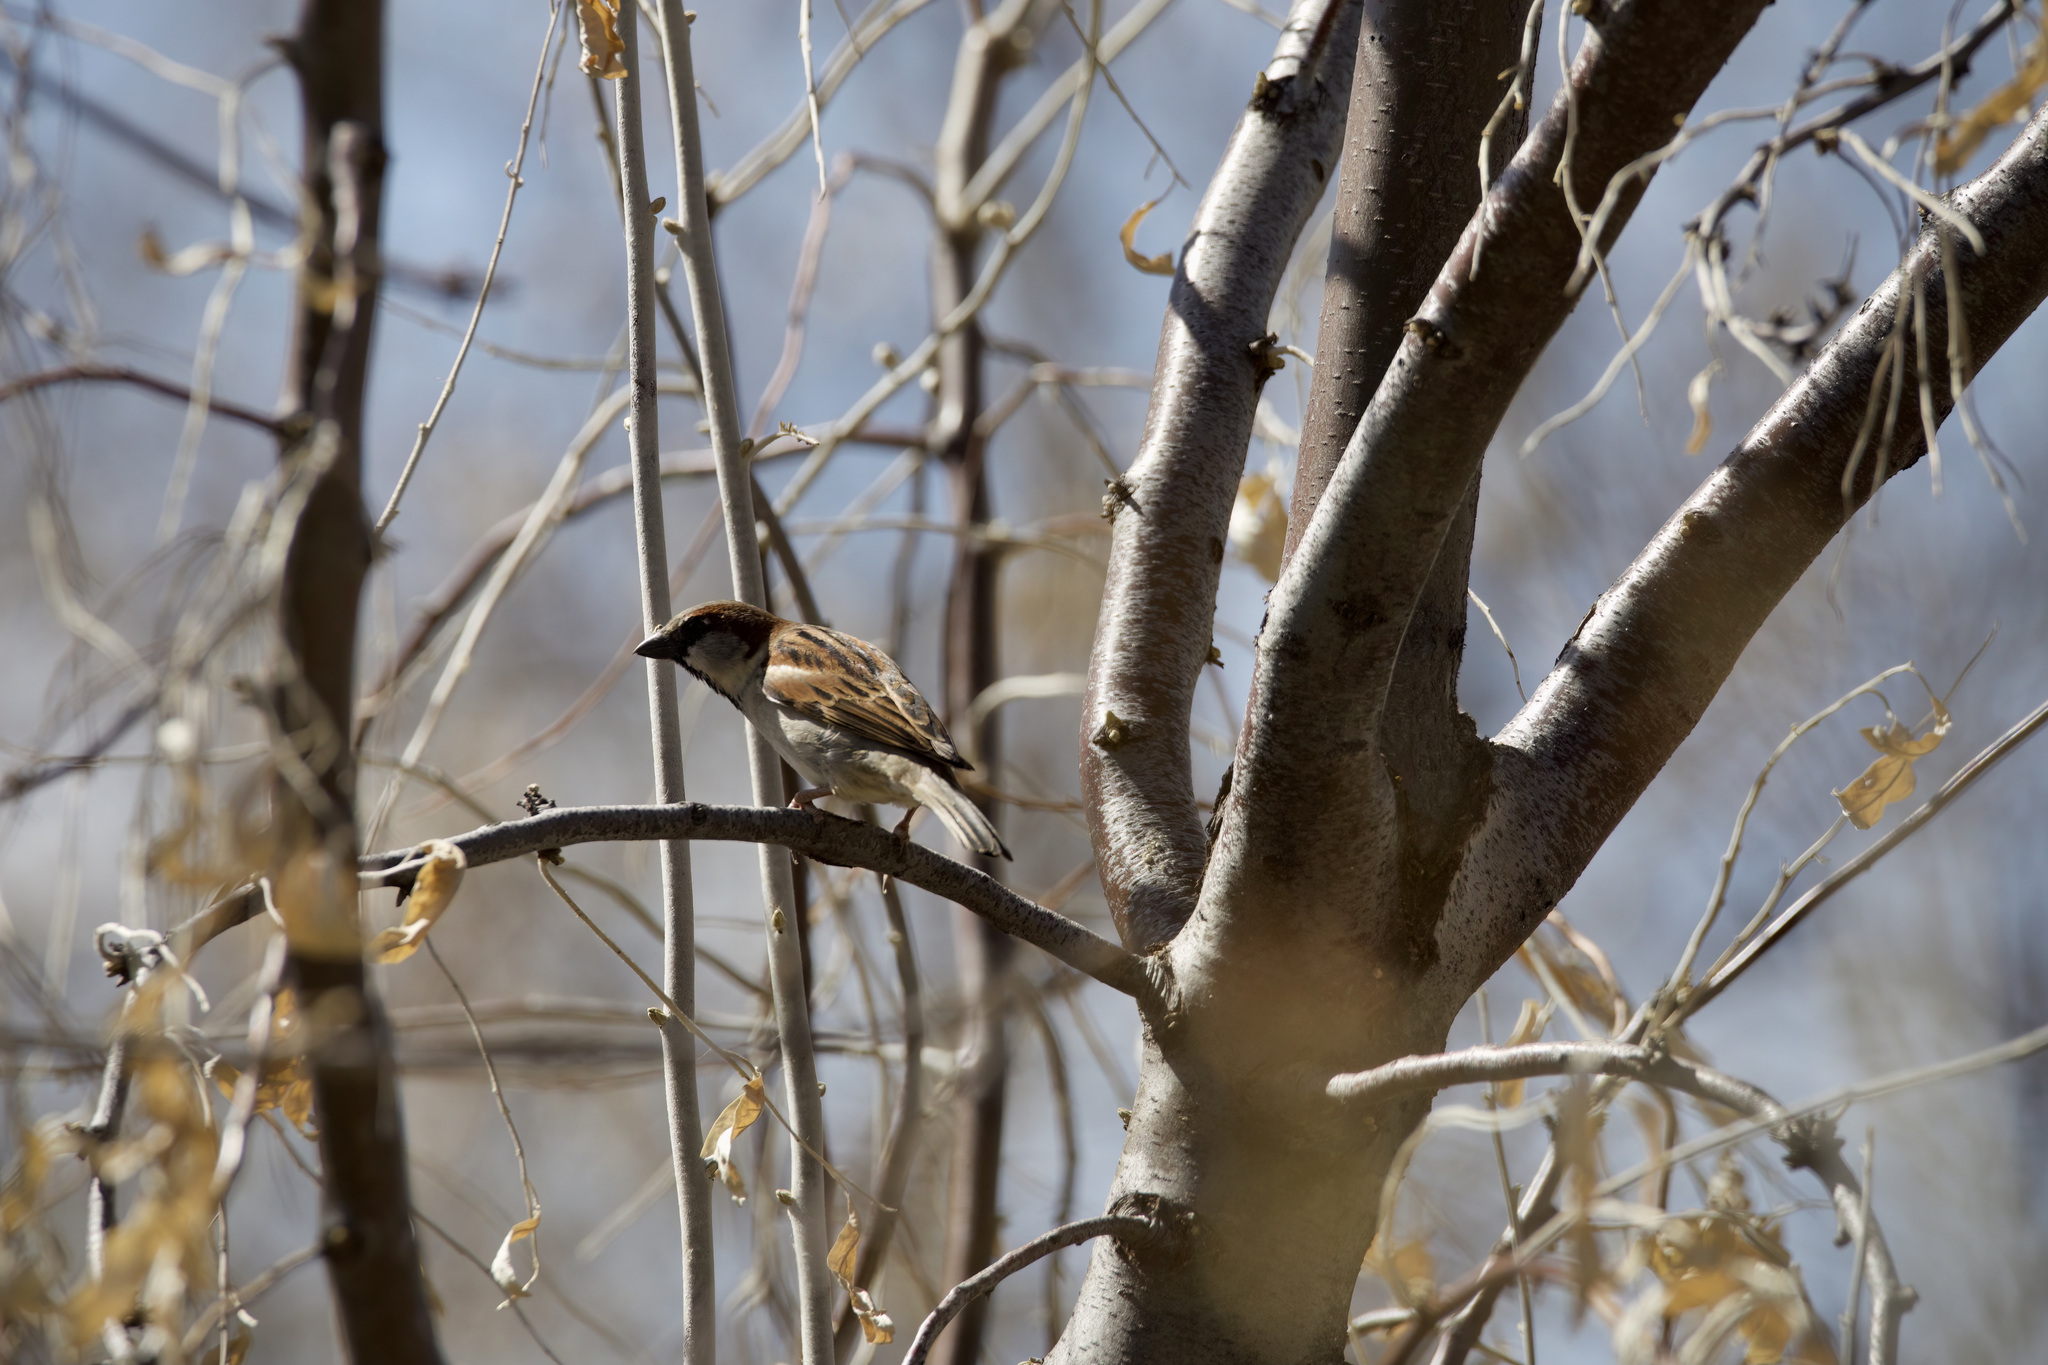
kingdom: Animalia
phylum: Chordata
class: Aves
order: Passeriformes
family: Passeridae
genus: Passer
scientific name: Passer domesticus
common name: House sparrow
